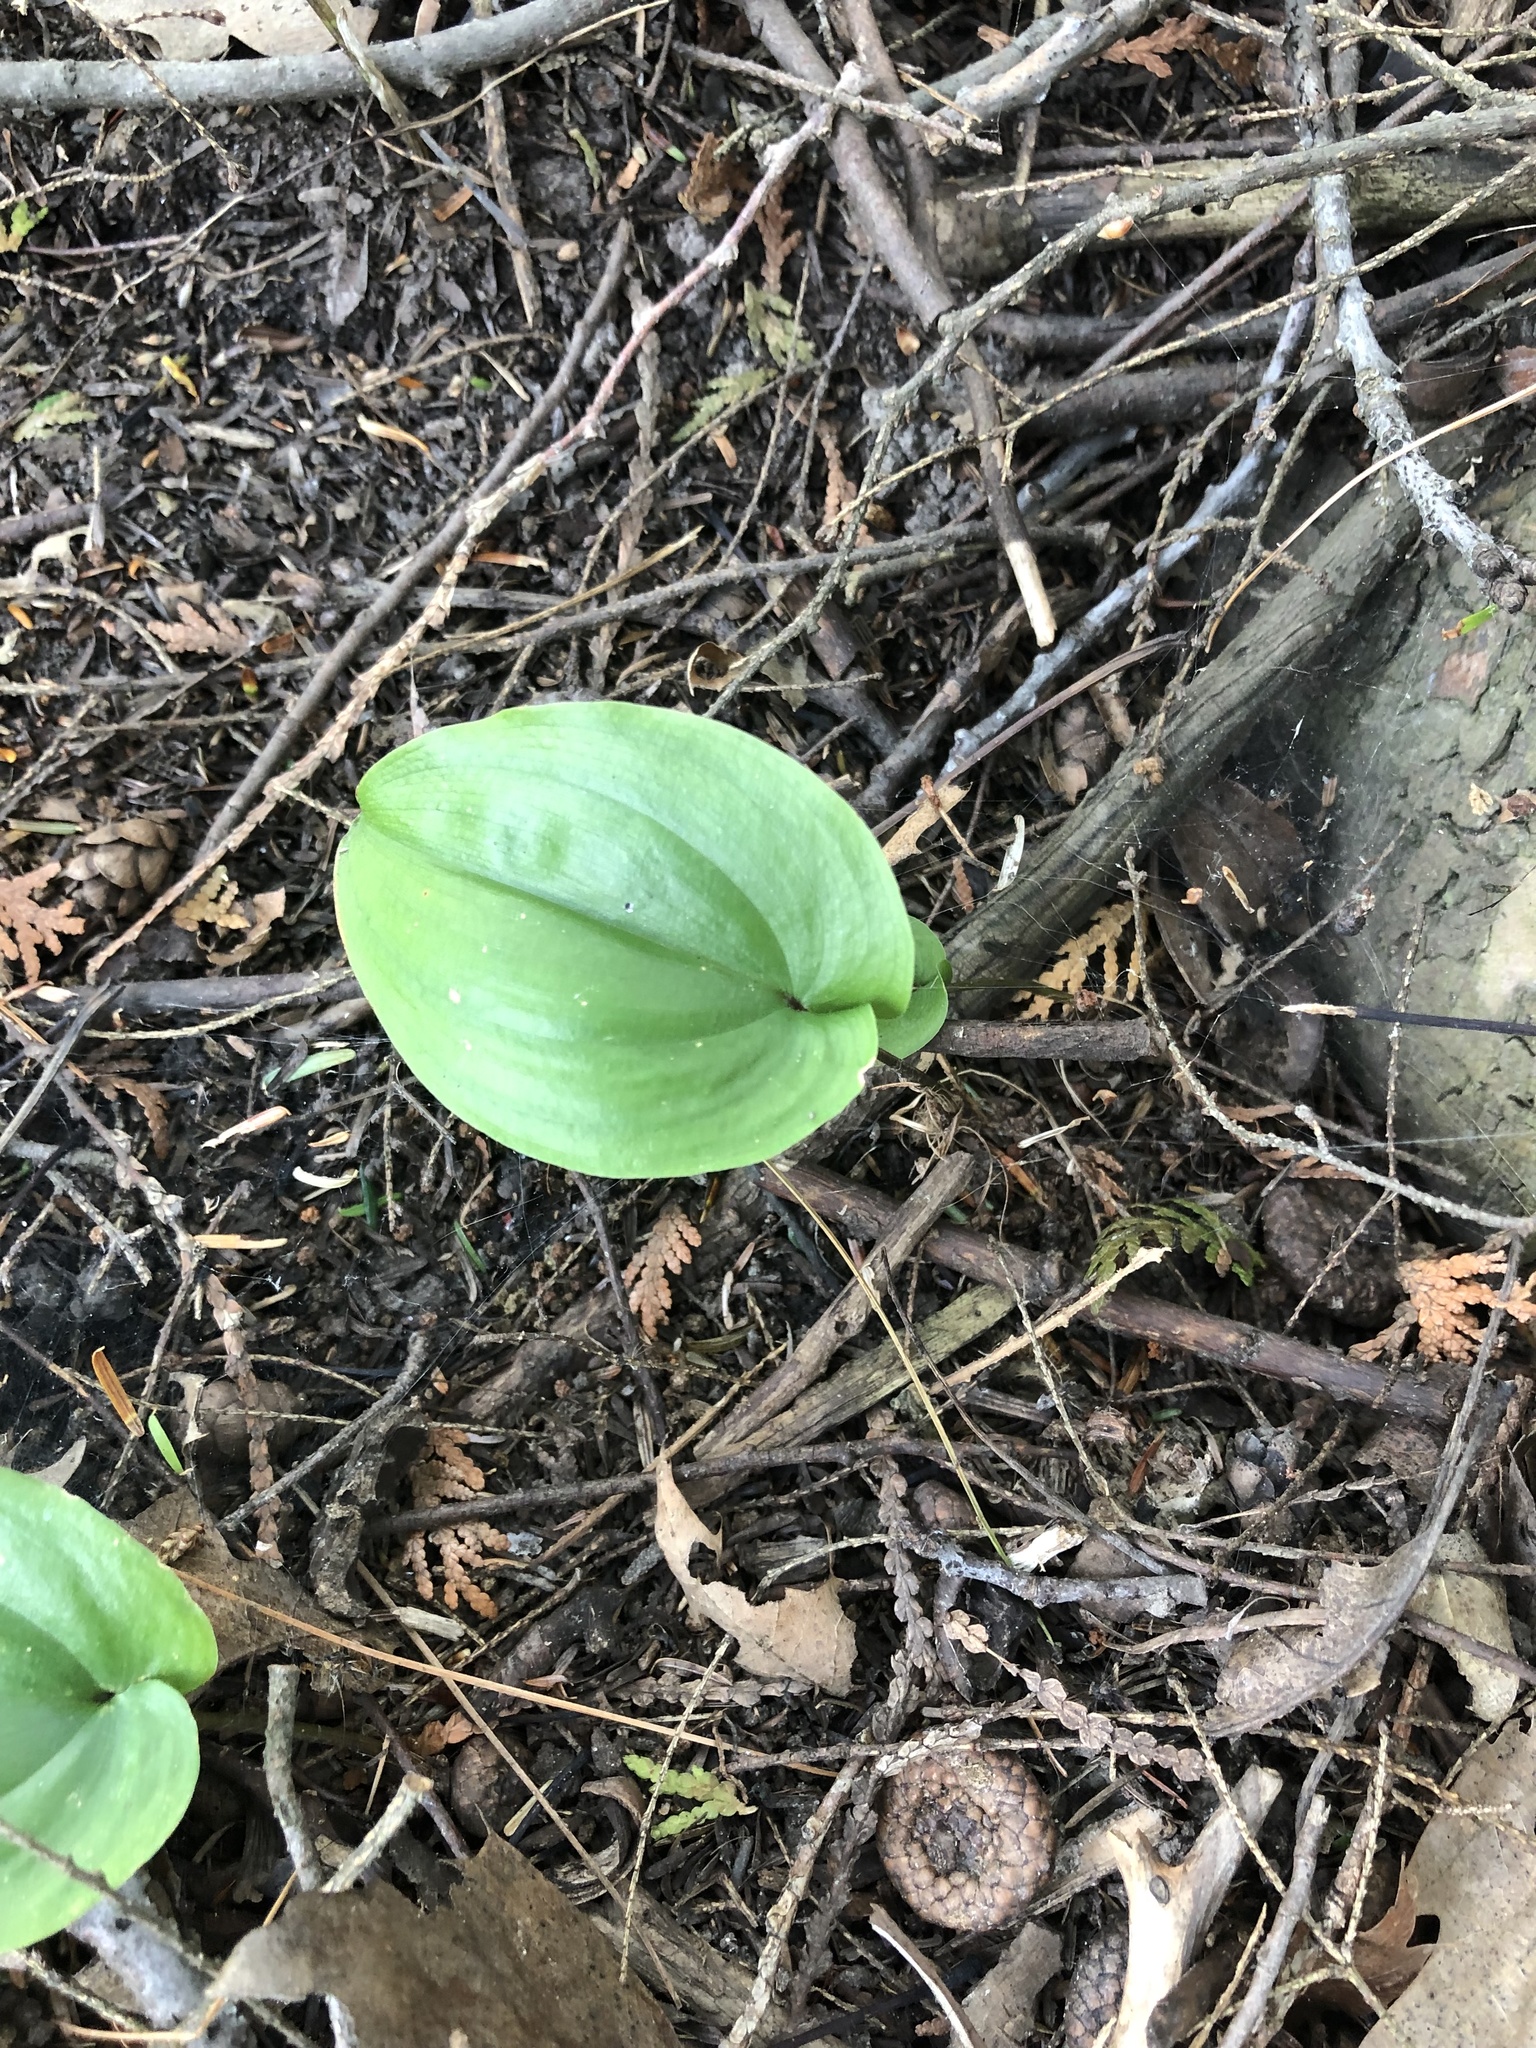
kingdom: Plantae
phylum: Tracheophyta
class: Liliopsida
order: Asparagales
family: Asparagaceae
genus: Maianthemum
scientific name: Maianthemum canadense
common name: False lily-of-the-valley
